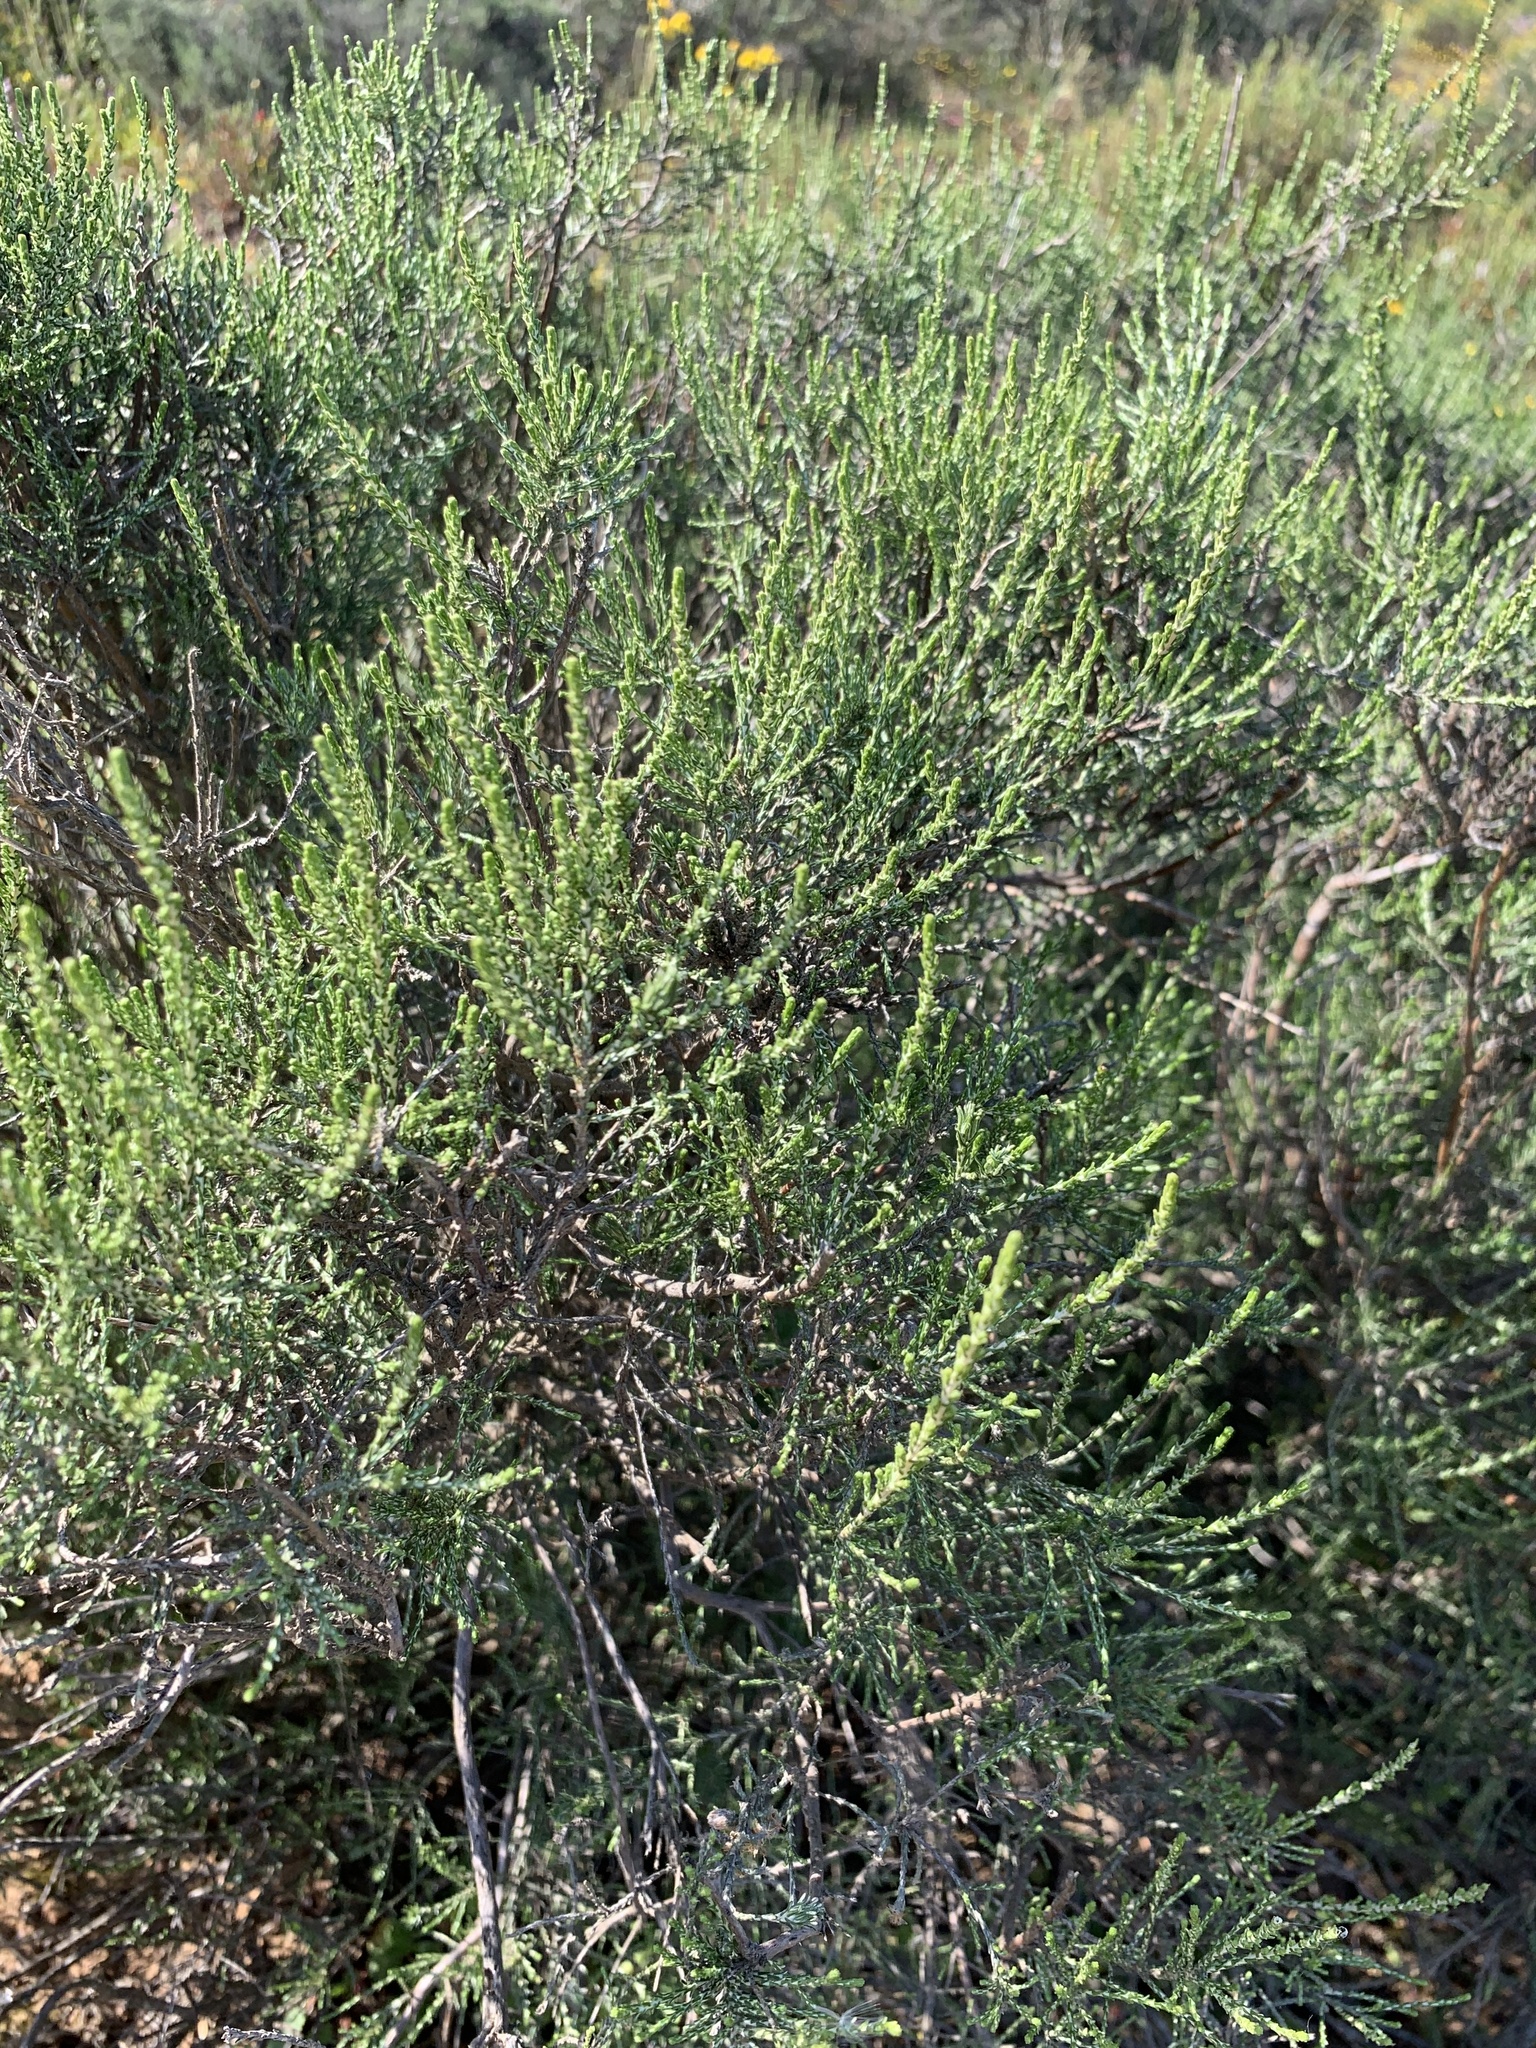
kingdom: Plantae
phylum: Tracheophyta
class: Magnoliopsida
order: Asterales
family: Asteraceae
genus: Dicerothamnus
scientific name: Dicerothamnus rhinocerotis
